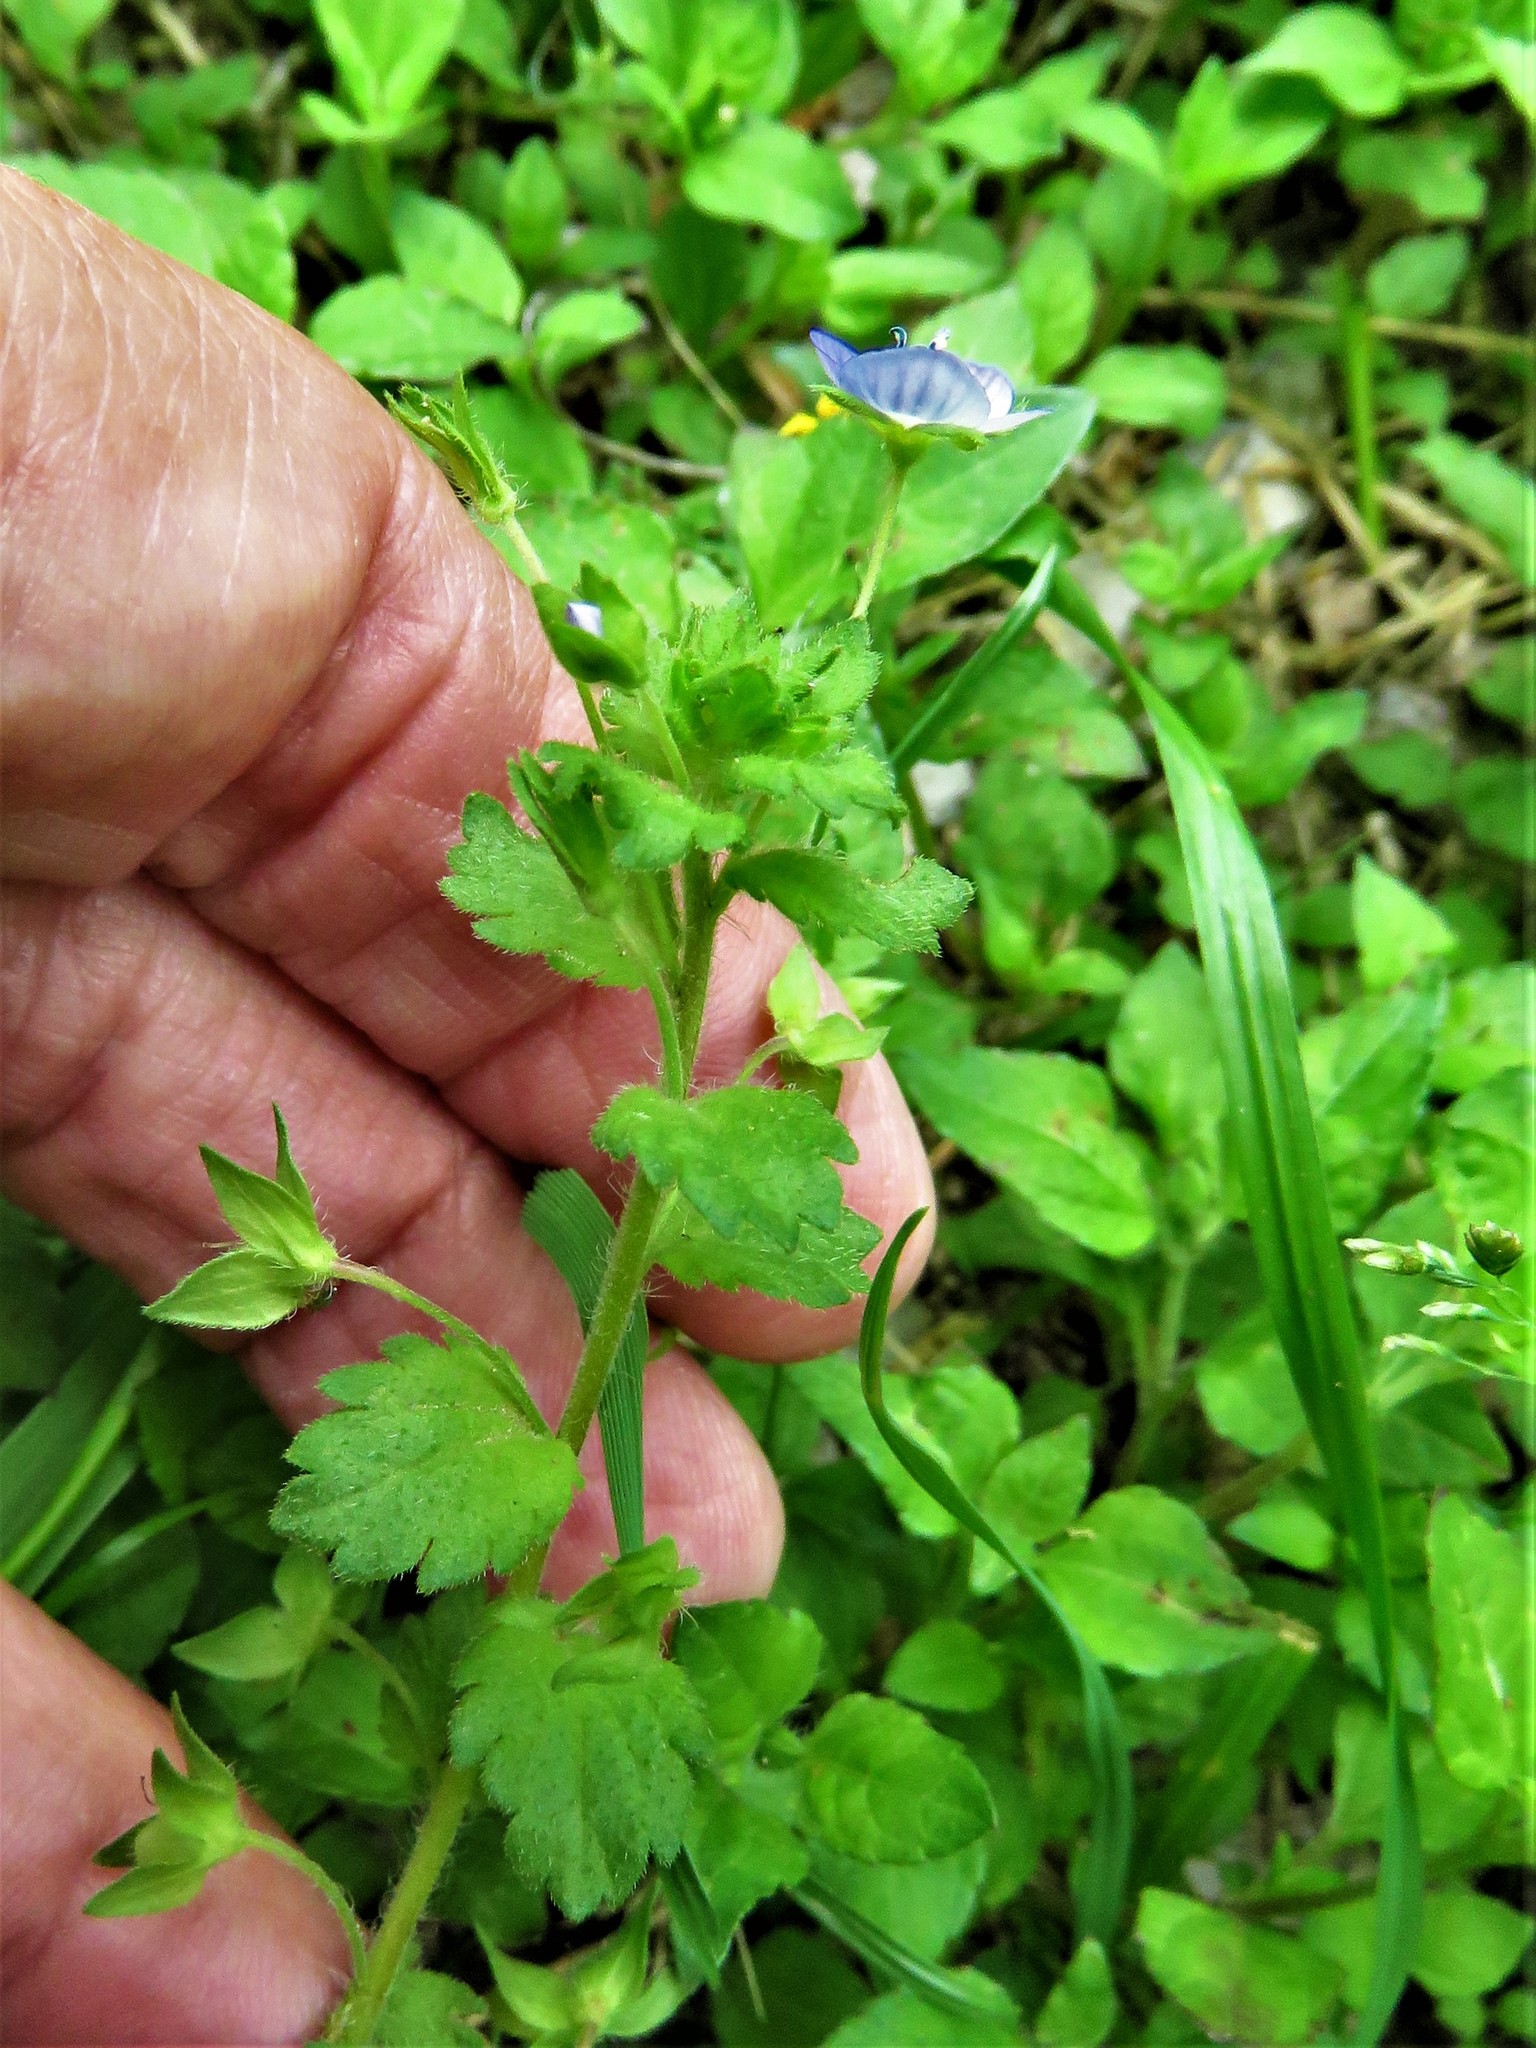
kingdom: Plantae
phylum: Tracheophyta
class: Magnoliopsida
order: Lamiales
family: Plantaginaceae
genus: Veronica
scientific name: Veronica persica
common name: Common field-speedwell
